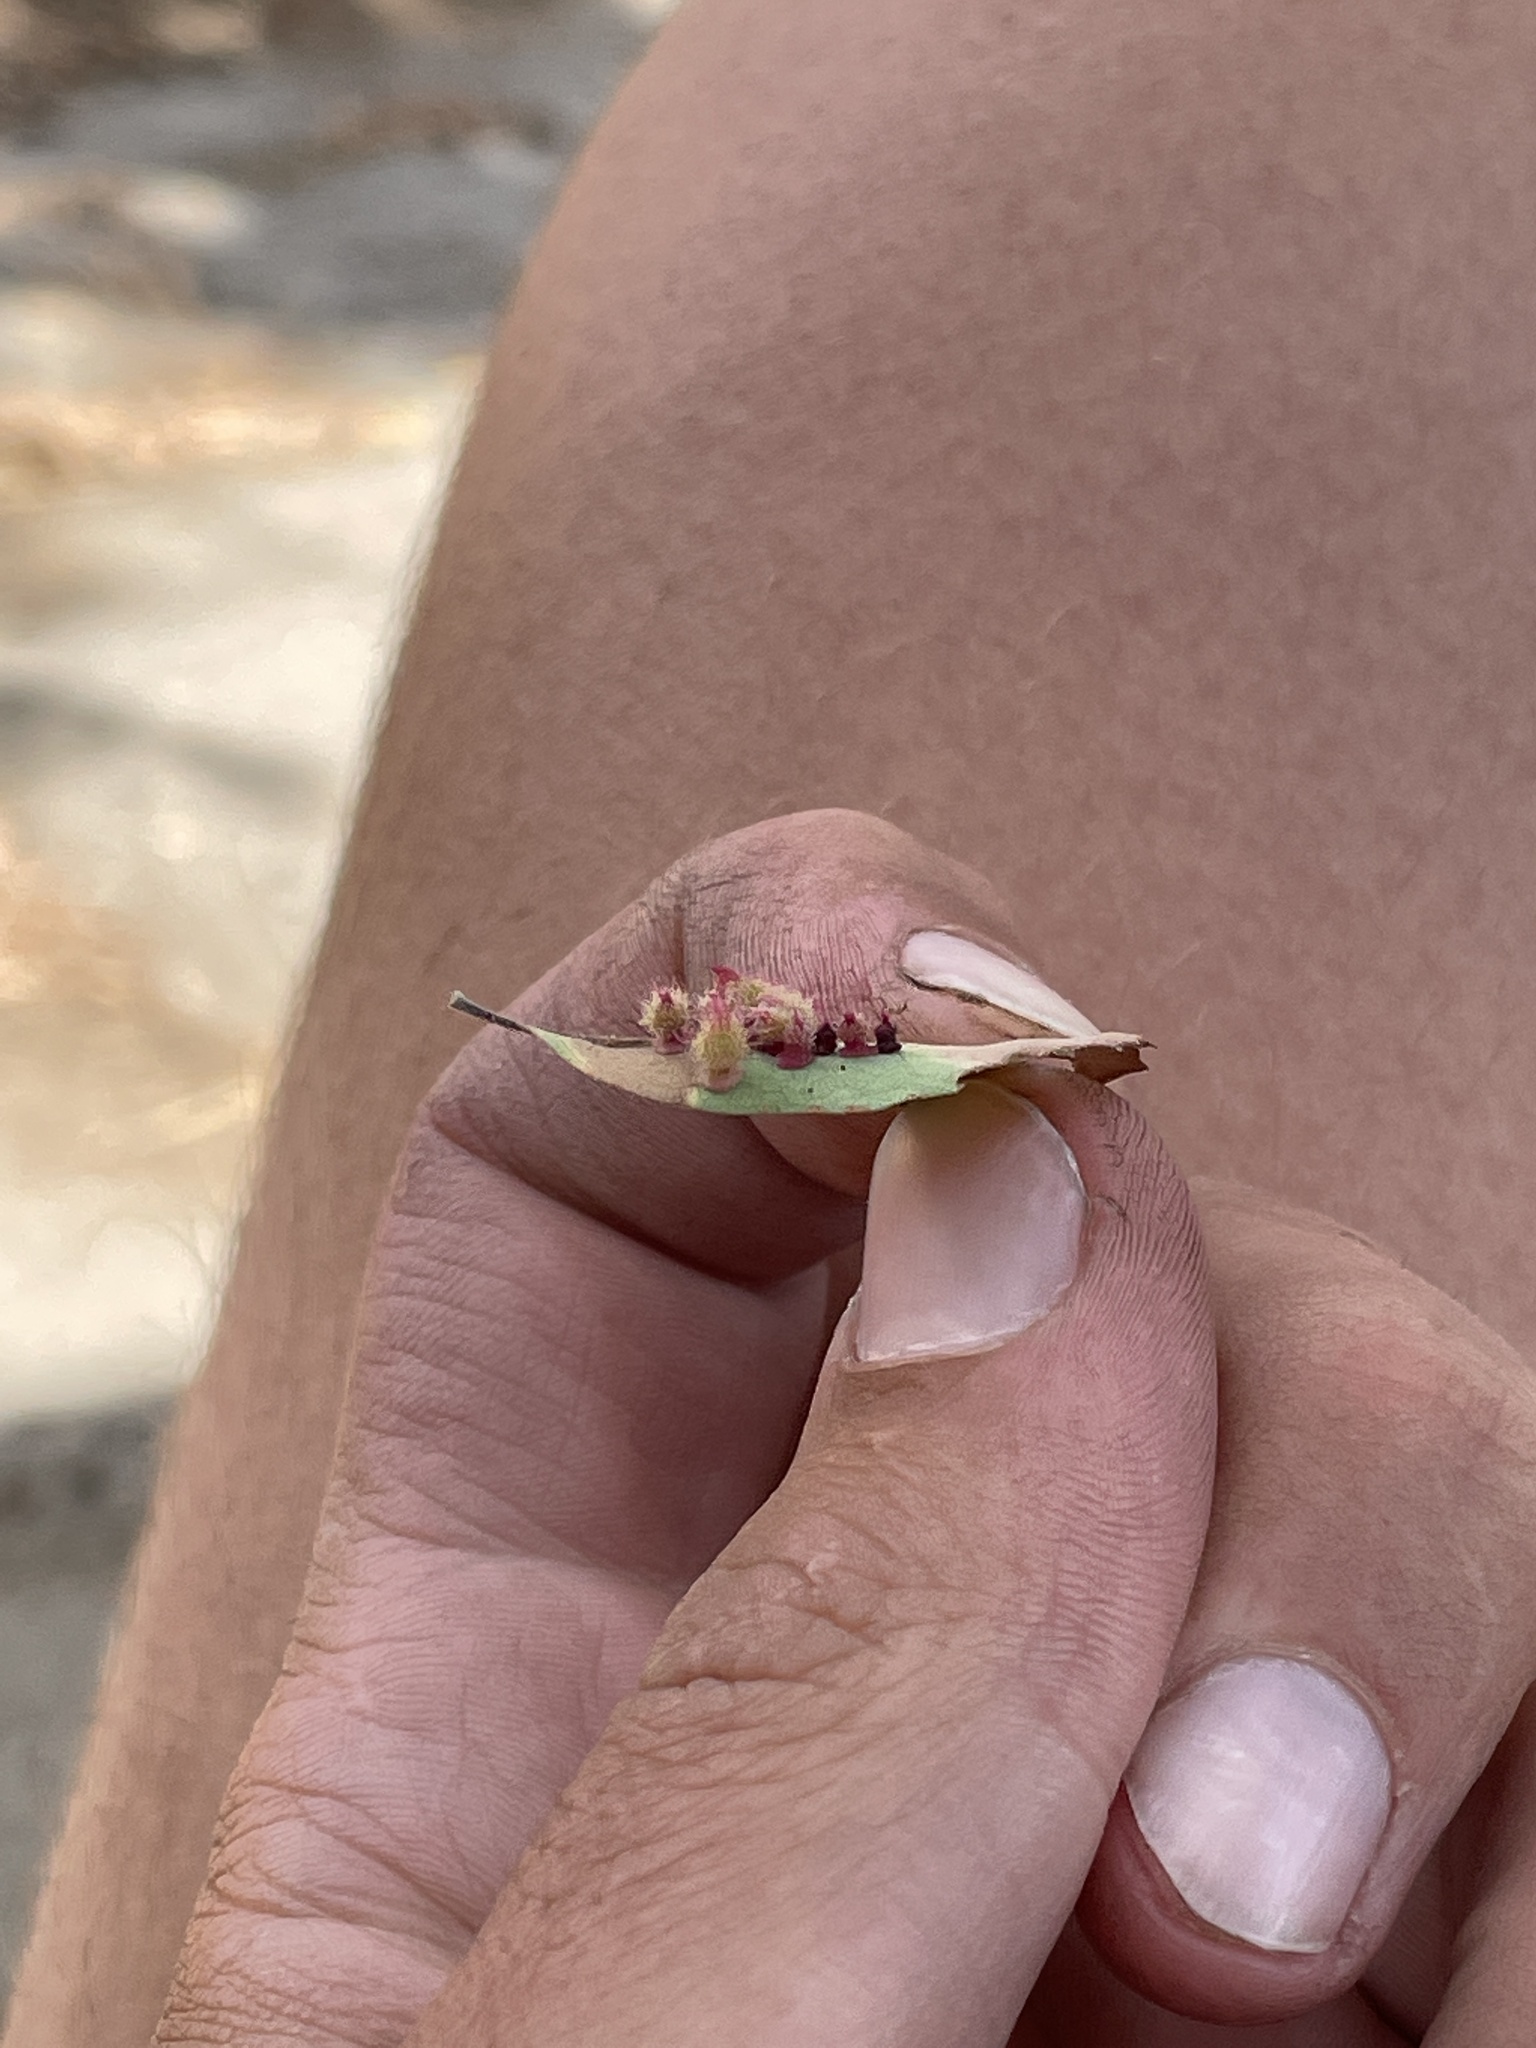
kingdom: Animalia
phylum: Arthropoda
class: Insecta
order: Hymenoptera
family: Cynipidae
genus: Andricus
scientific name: Andricus
